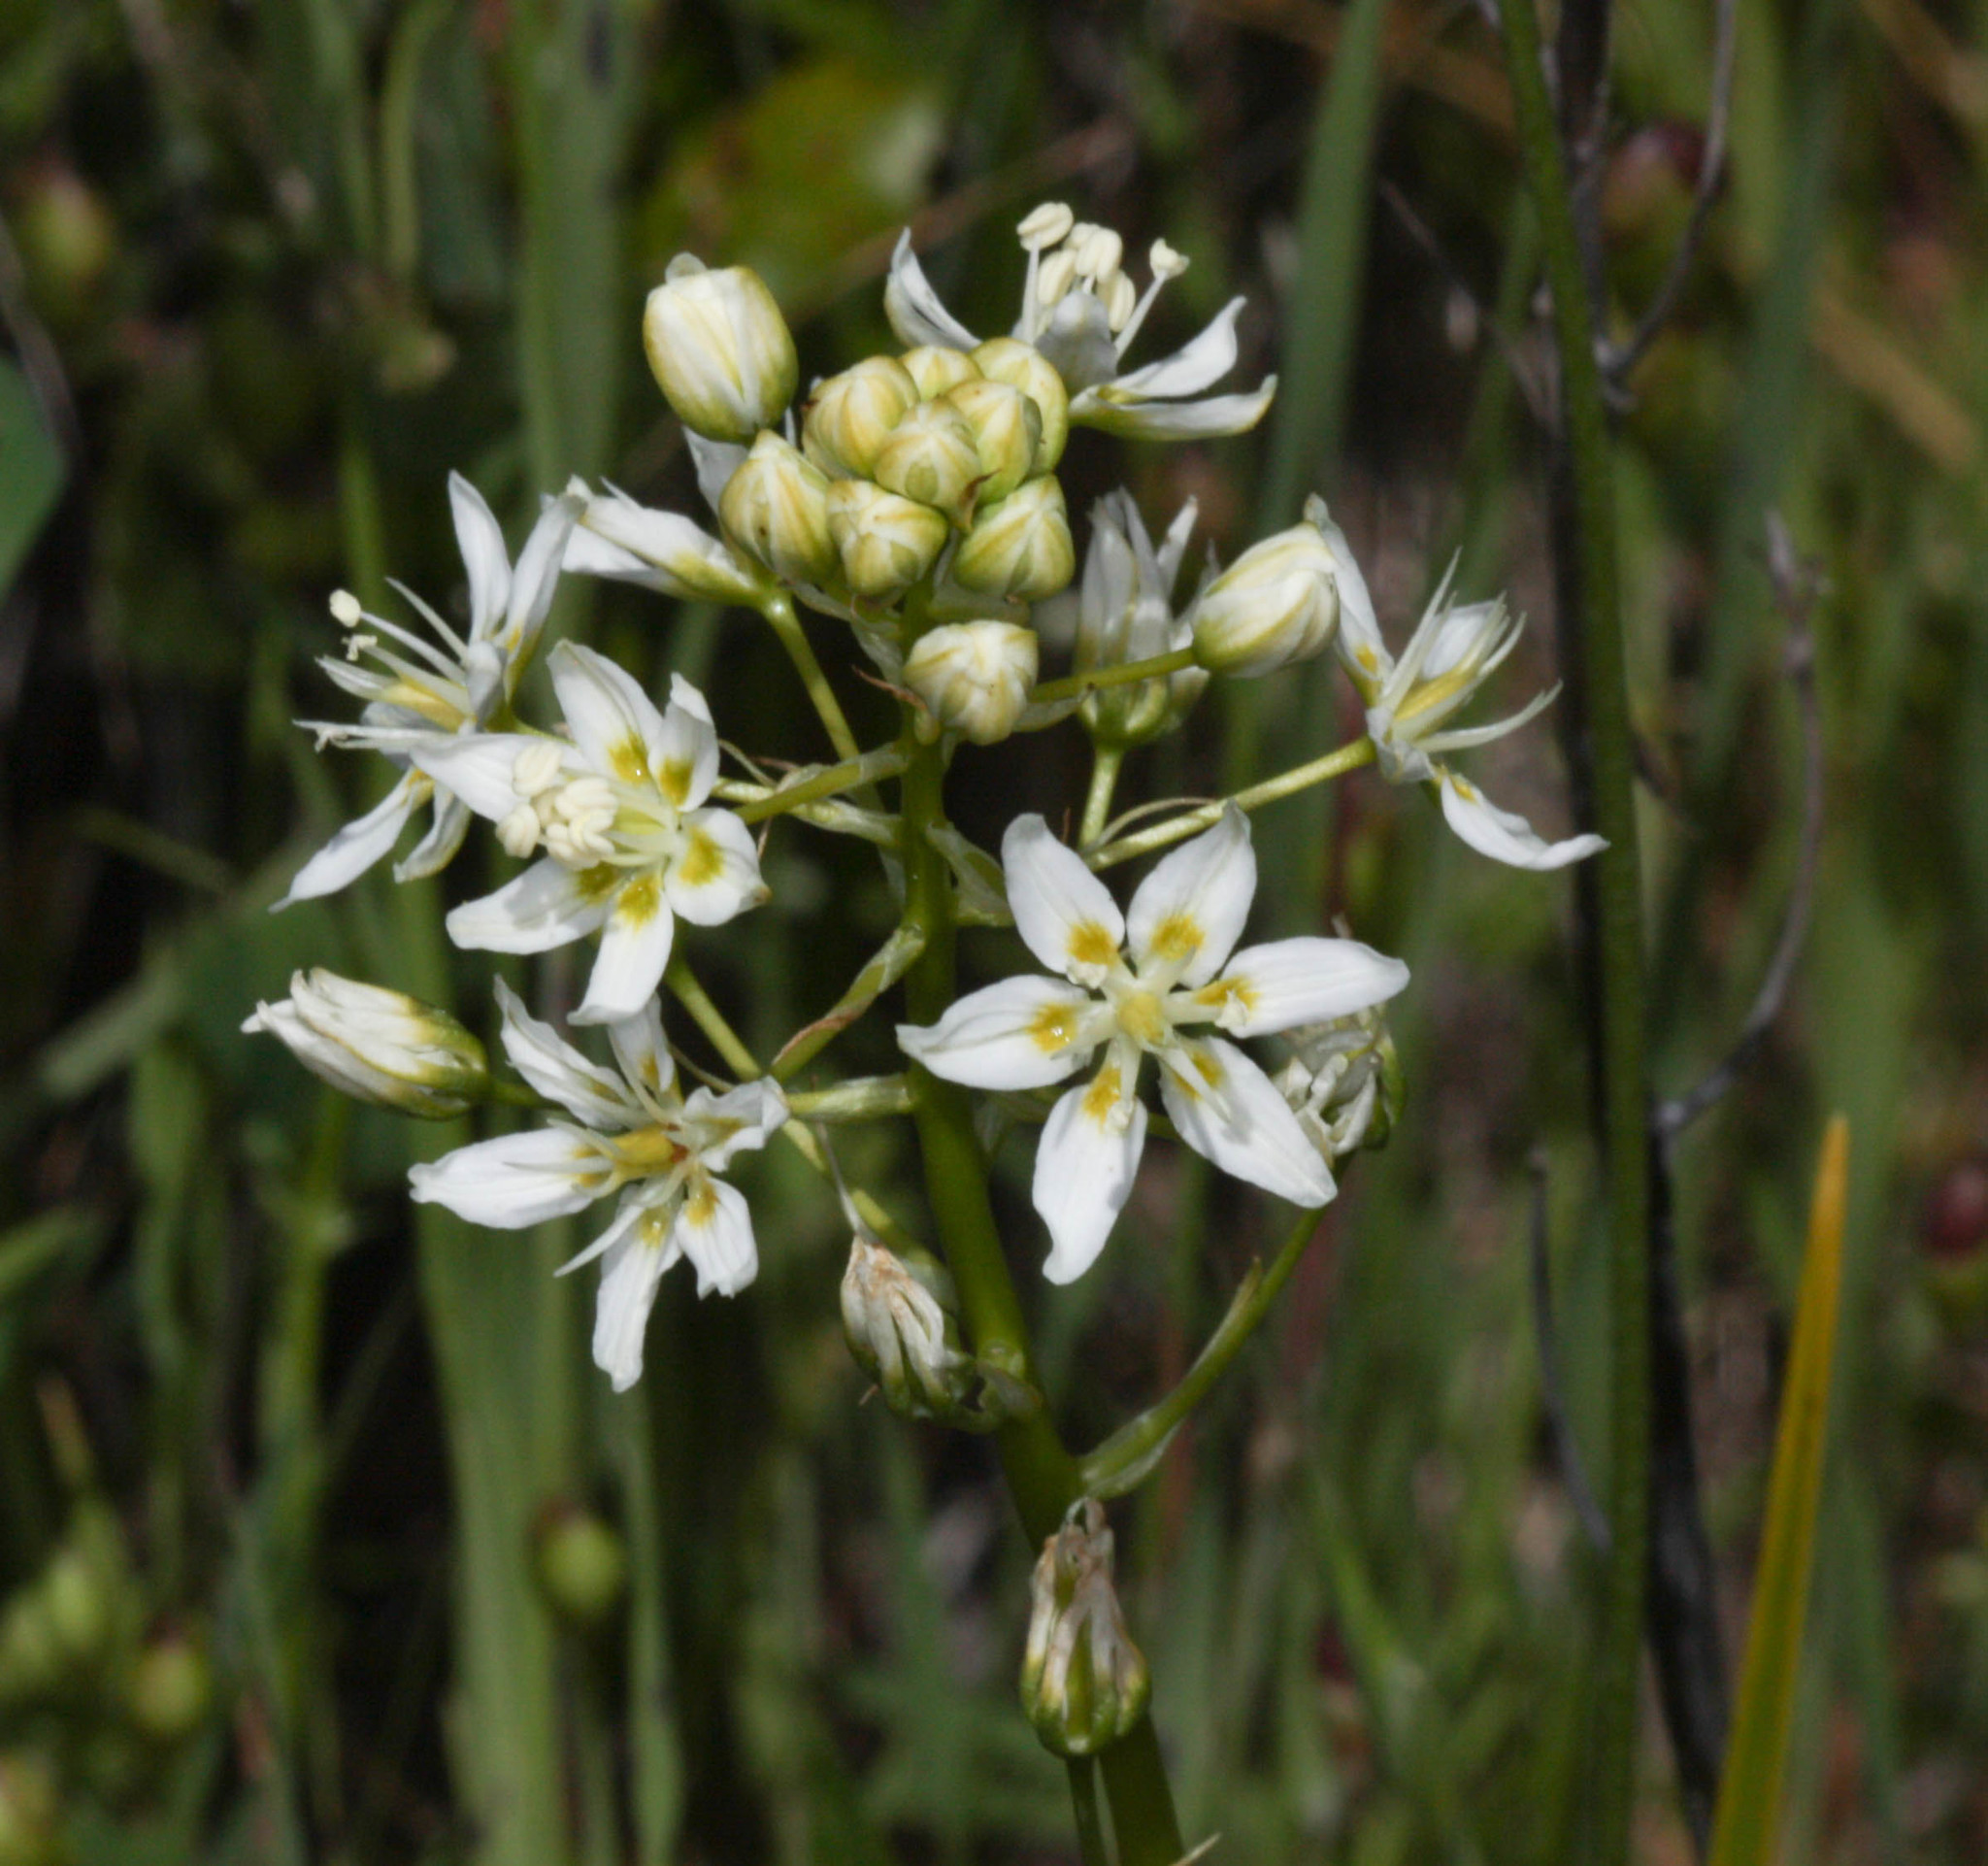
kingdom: Plantae
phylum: Tracheophyta
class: Liliopsida
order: Liliales
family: Melanthiaceae
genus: Toxicoscordion
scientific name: Toxicoscordion fontanum
